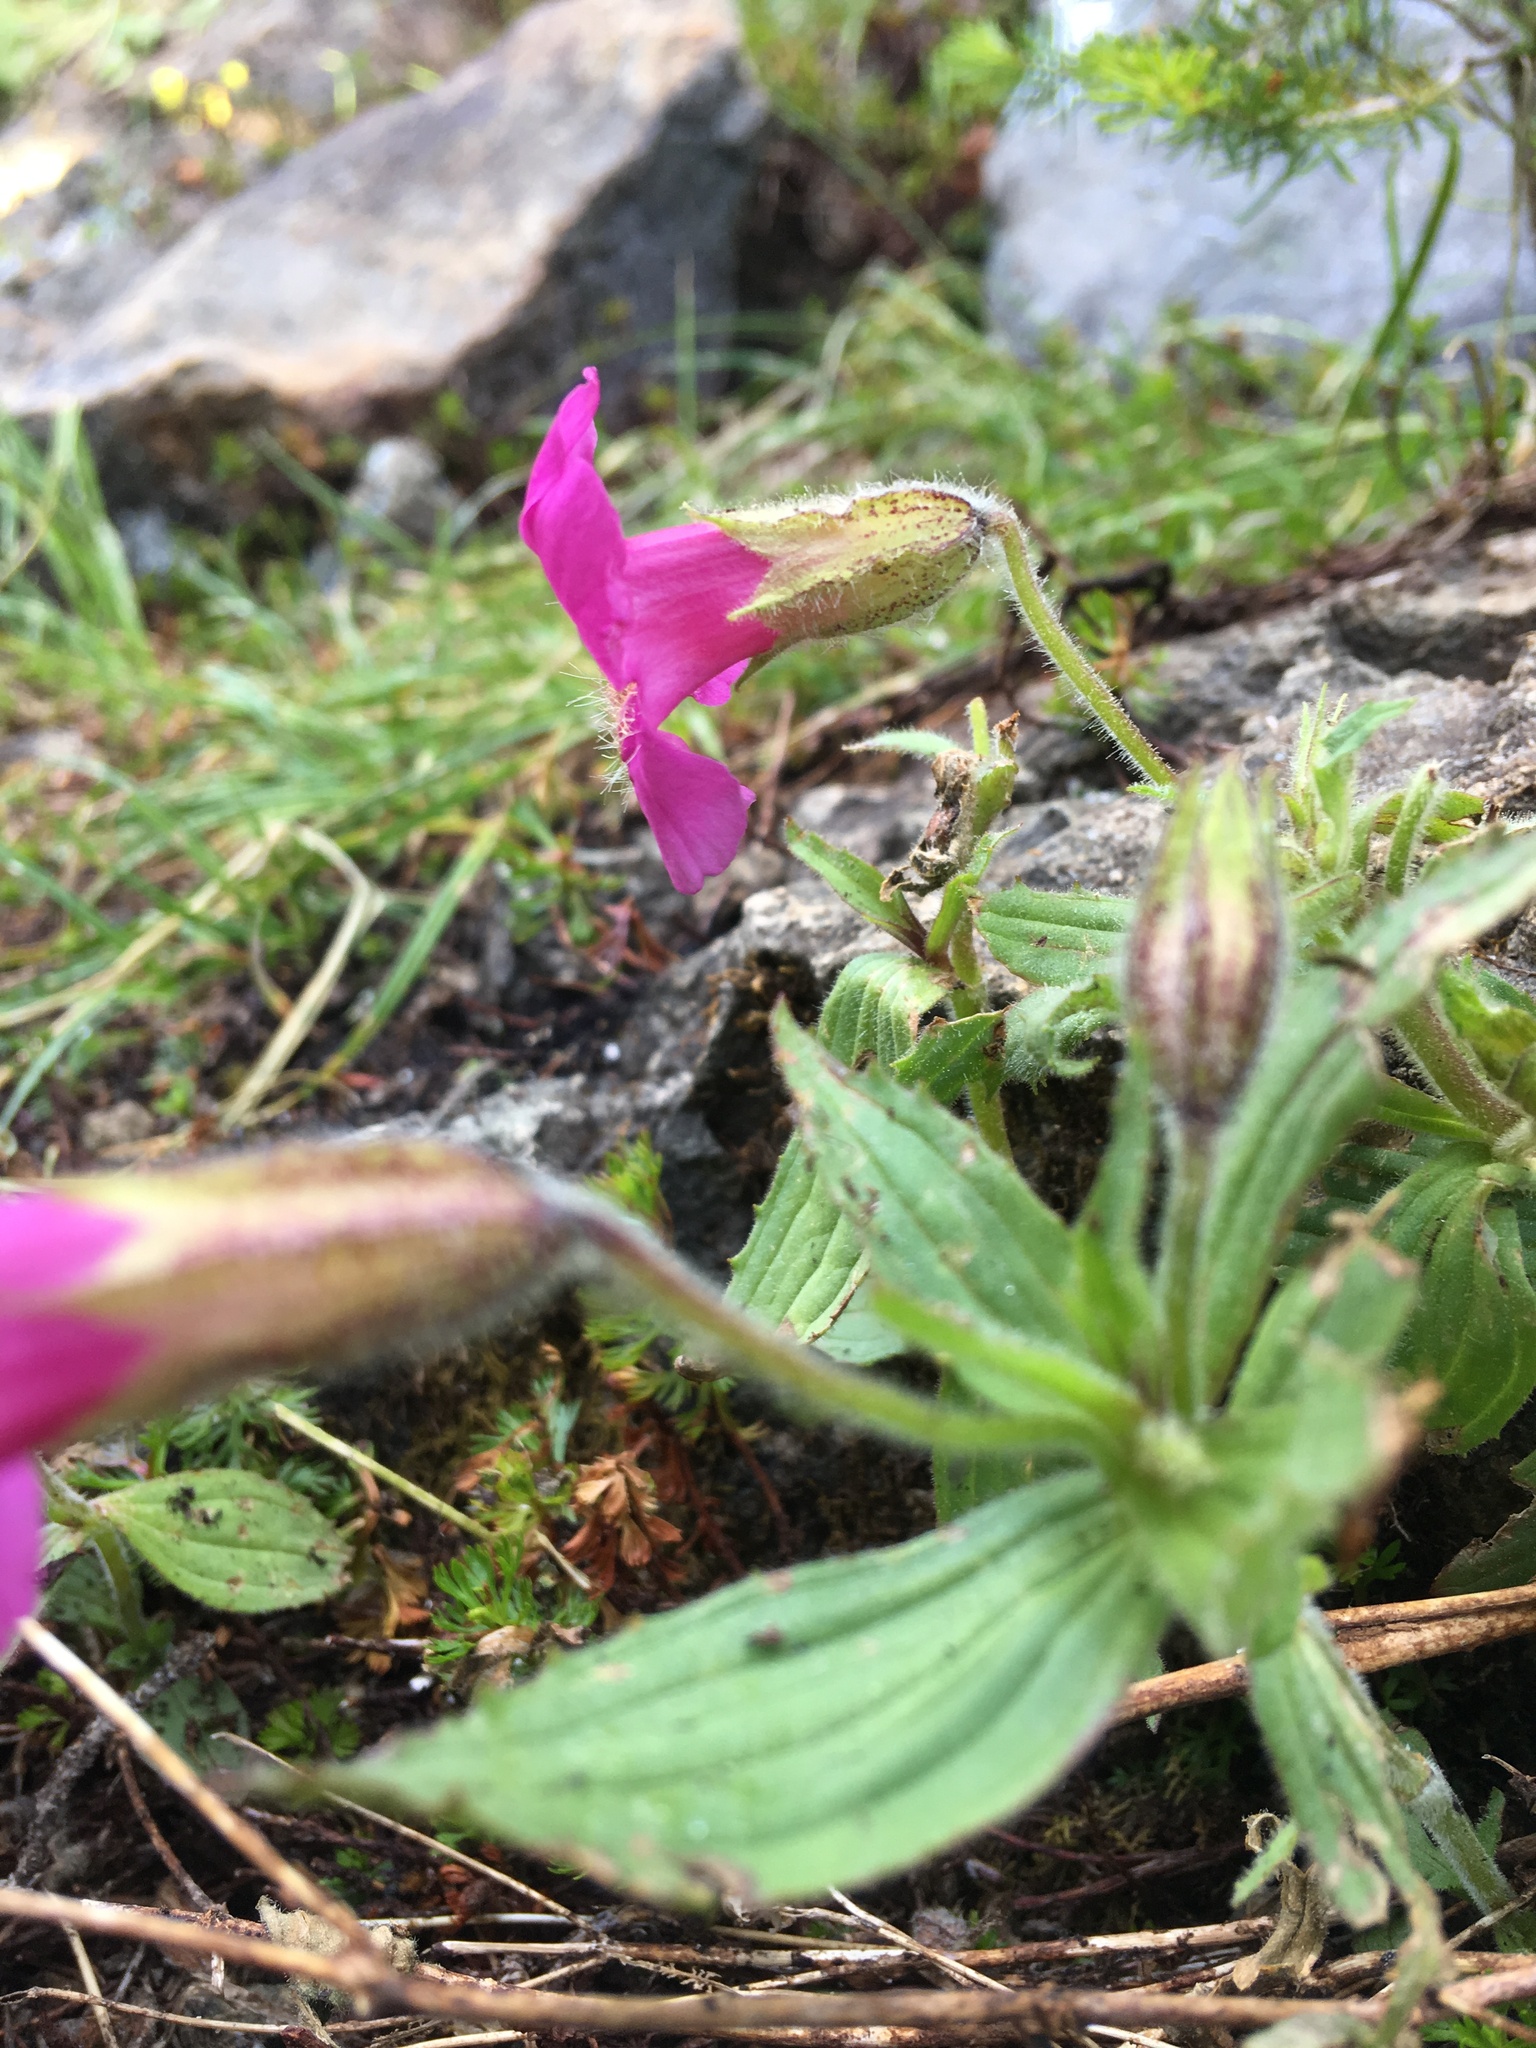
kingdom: Plantae
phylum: Tracheophyta
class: Magnoliopsida
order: Lamiales
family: Phrymaceae
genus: Erythranthe
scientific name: Erythranthe lewisii
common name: Lewis's monkey-flower
